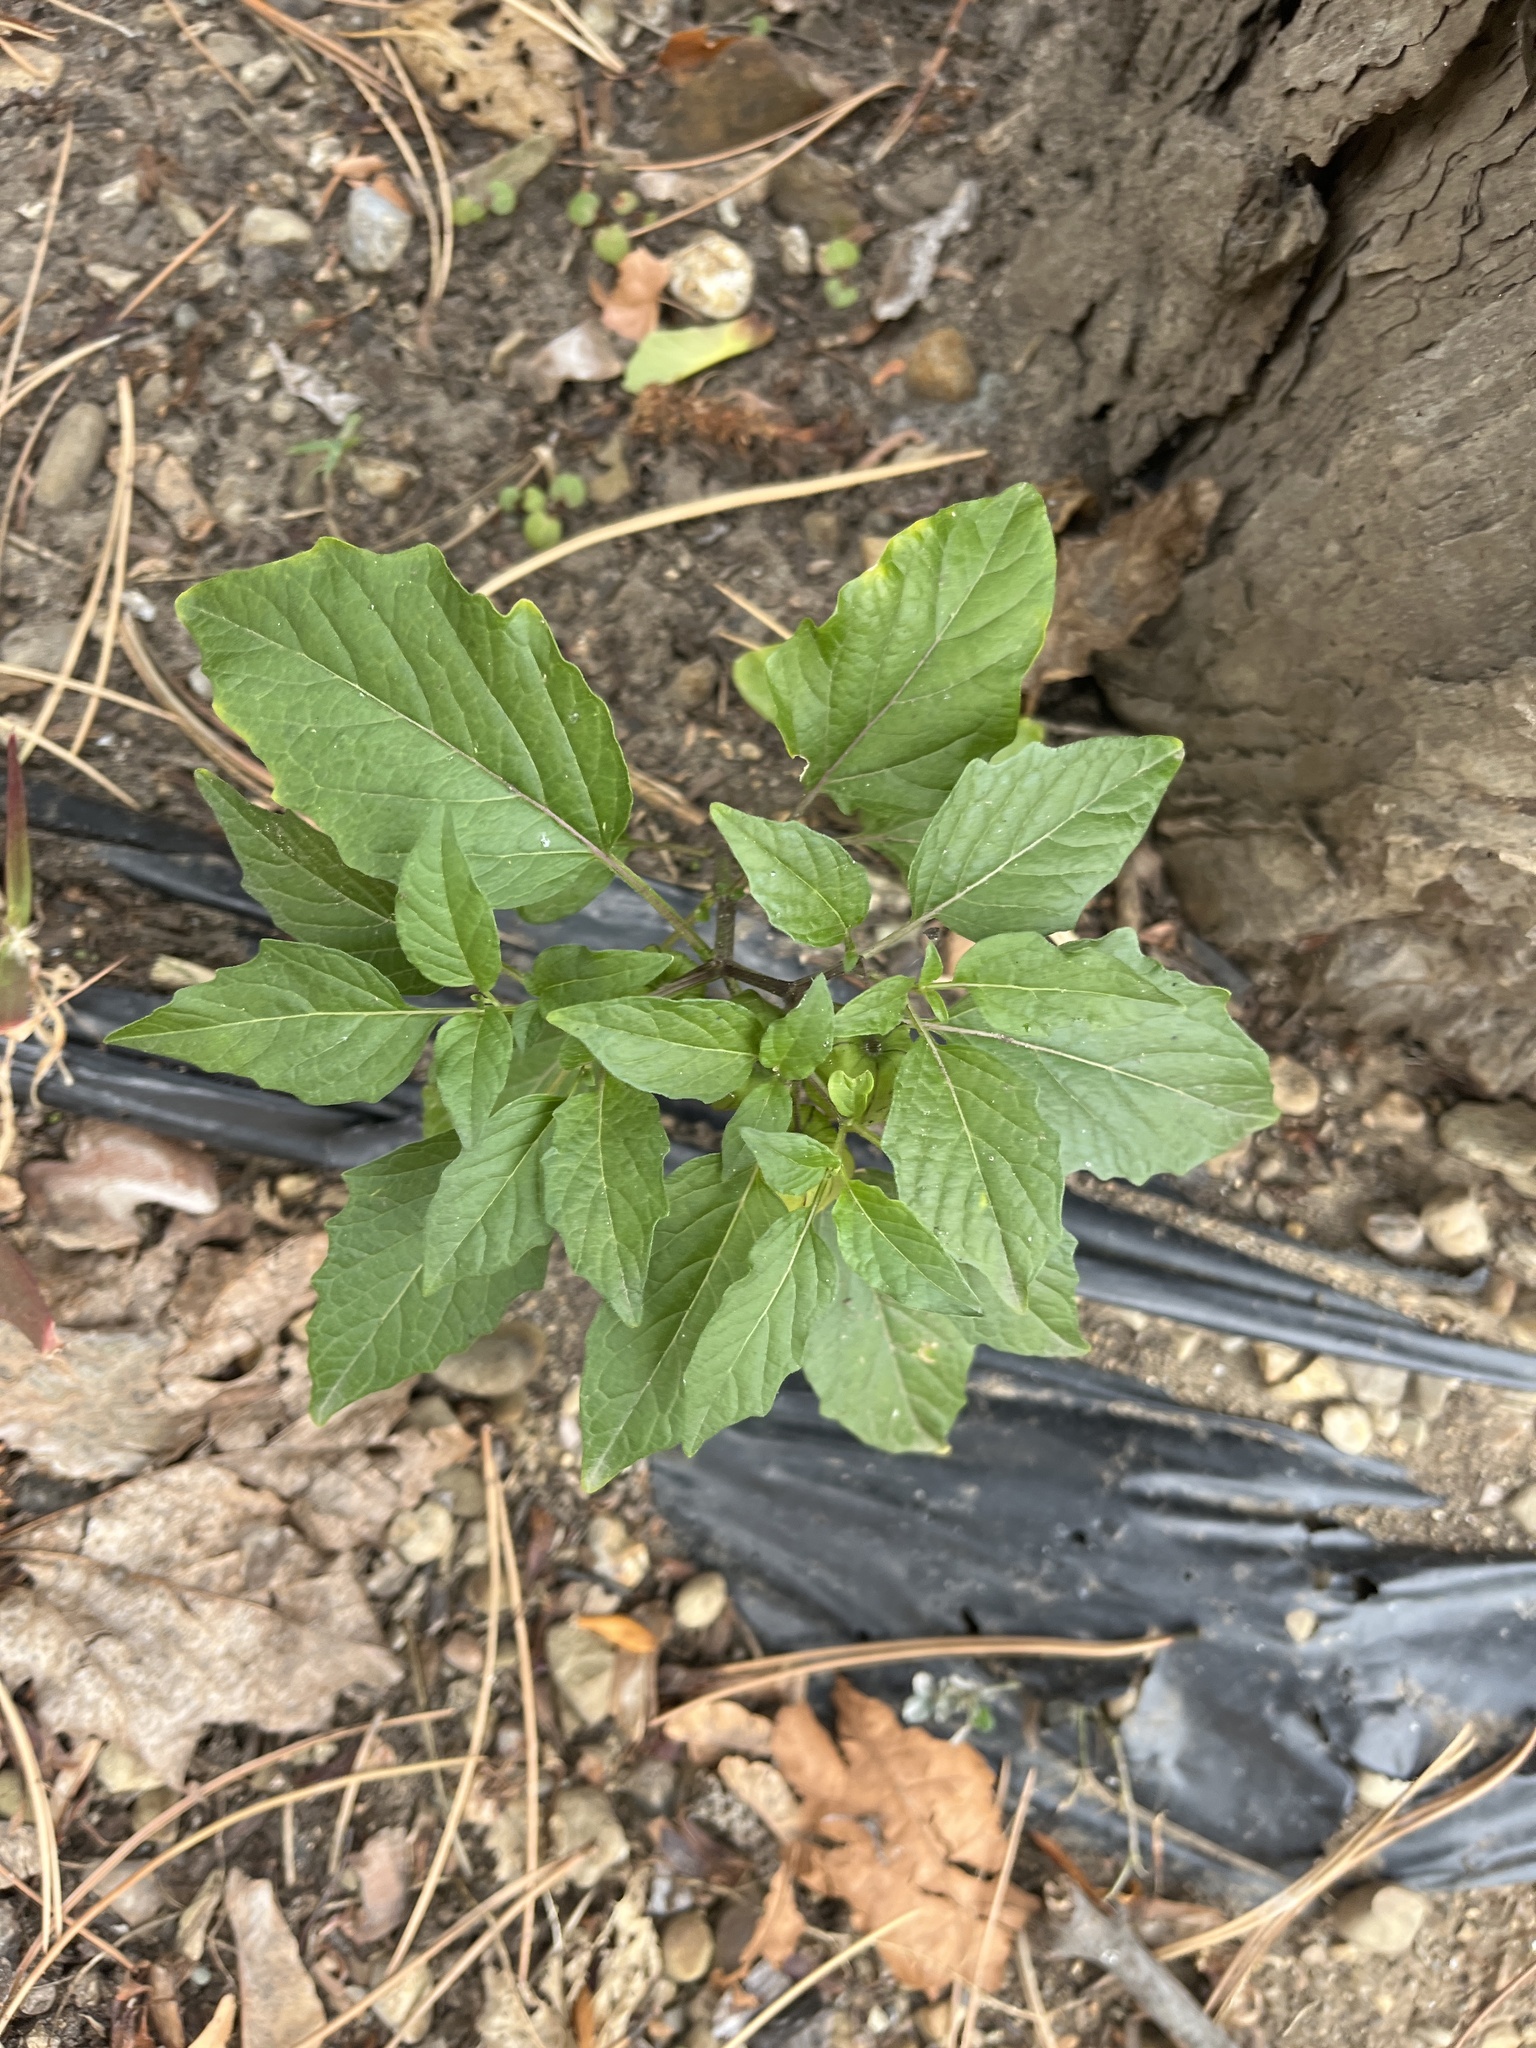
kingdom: Plantae
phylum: Tracheophyta
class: Magnoliopsida
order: Solanales
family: Solanaceae
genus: Physalis
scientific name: Physalis longifolia
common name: Common ground-cherry
